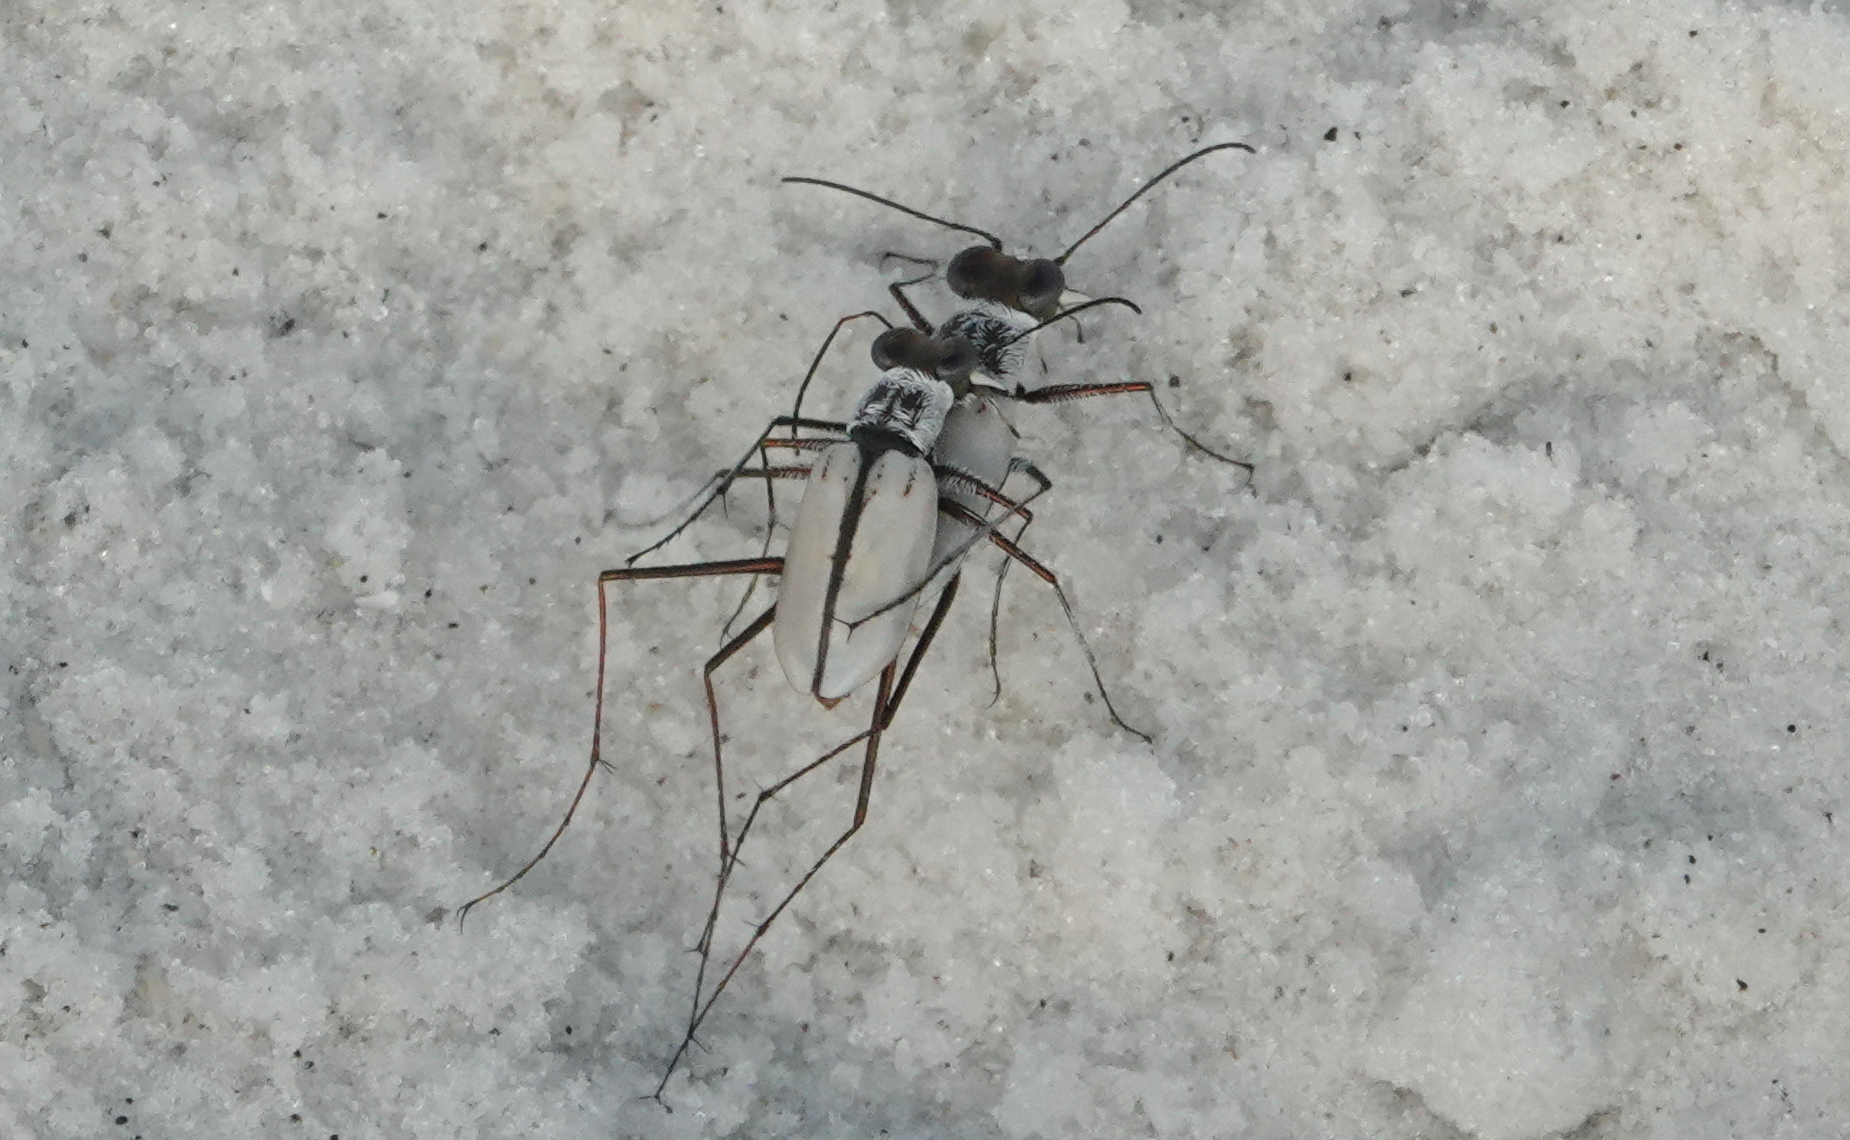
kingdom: Animalia
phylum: Arthropoda
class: Insecta
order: Coleoptera
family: Carabidae
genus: Habroscelimorpha
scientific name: Habroscelimorpha dorsalis
